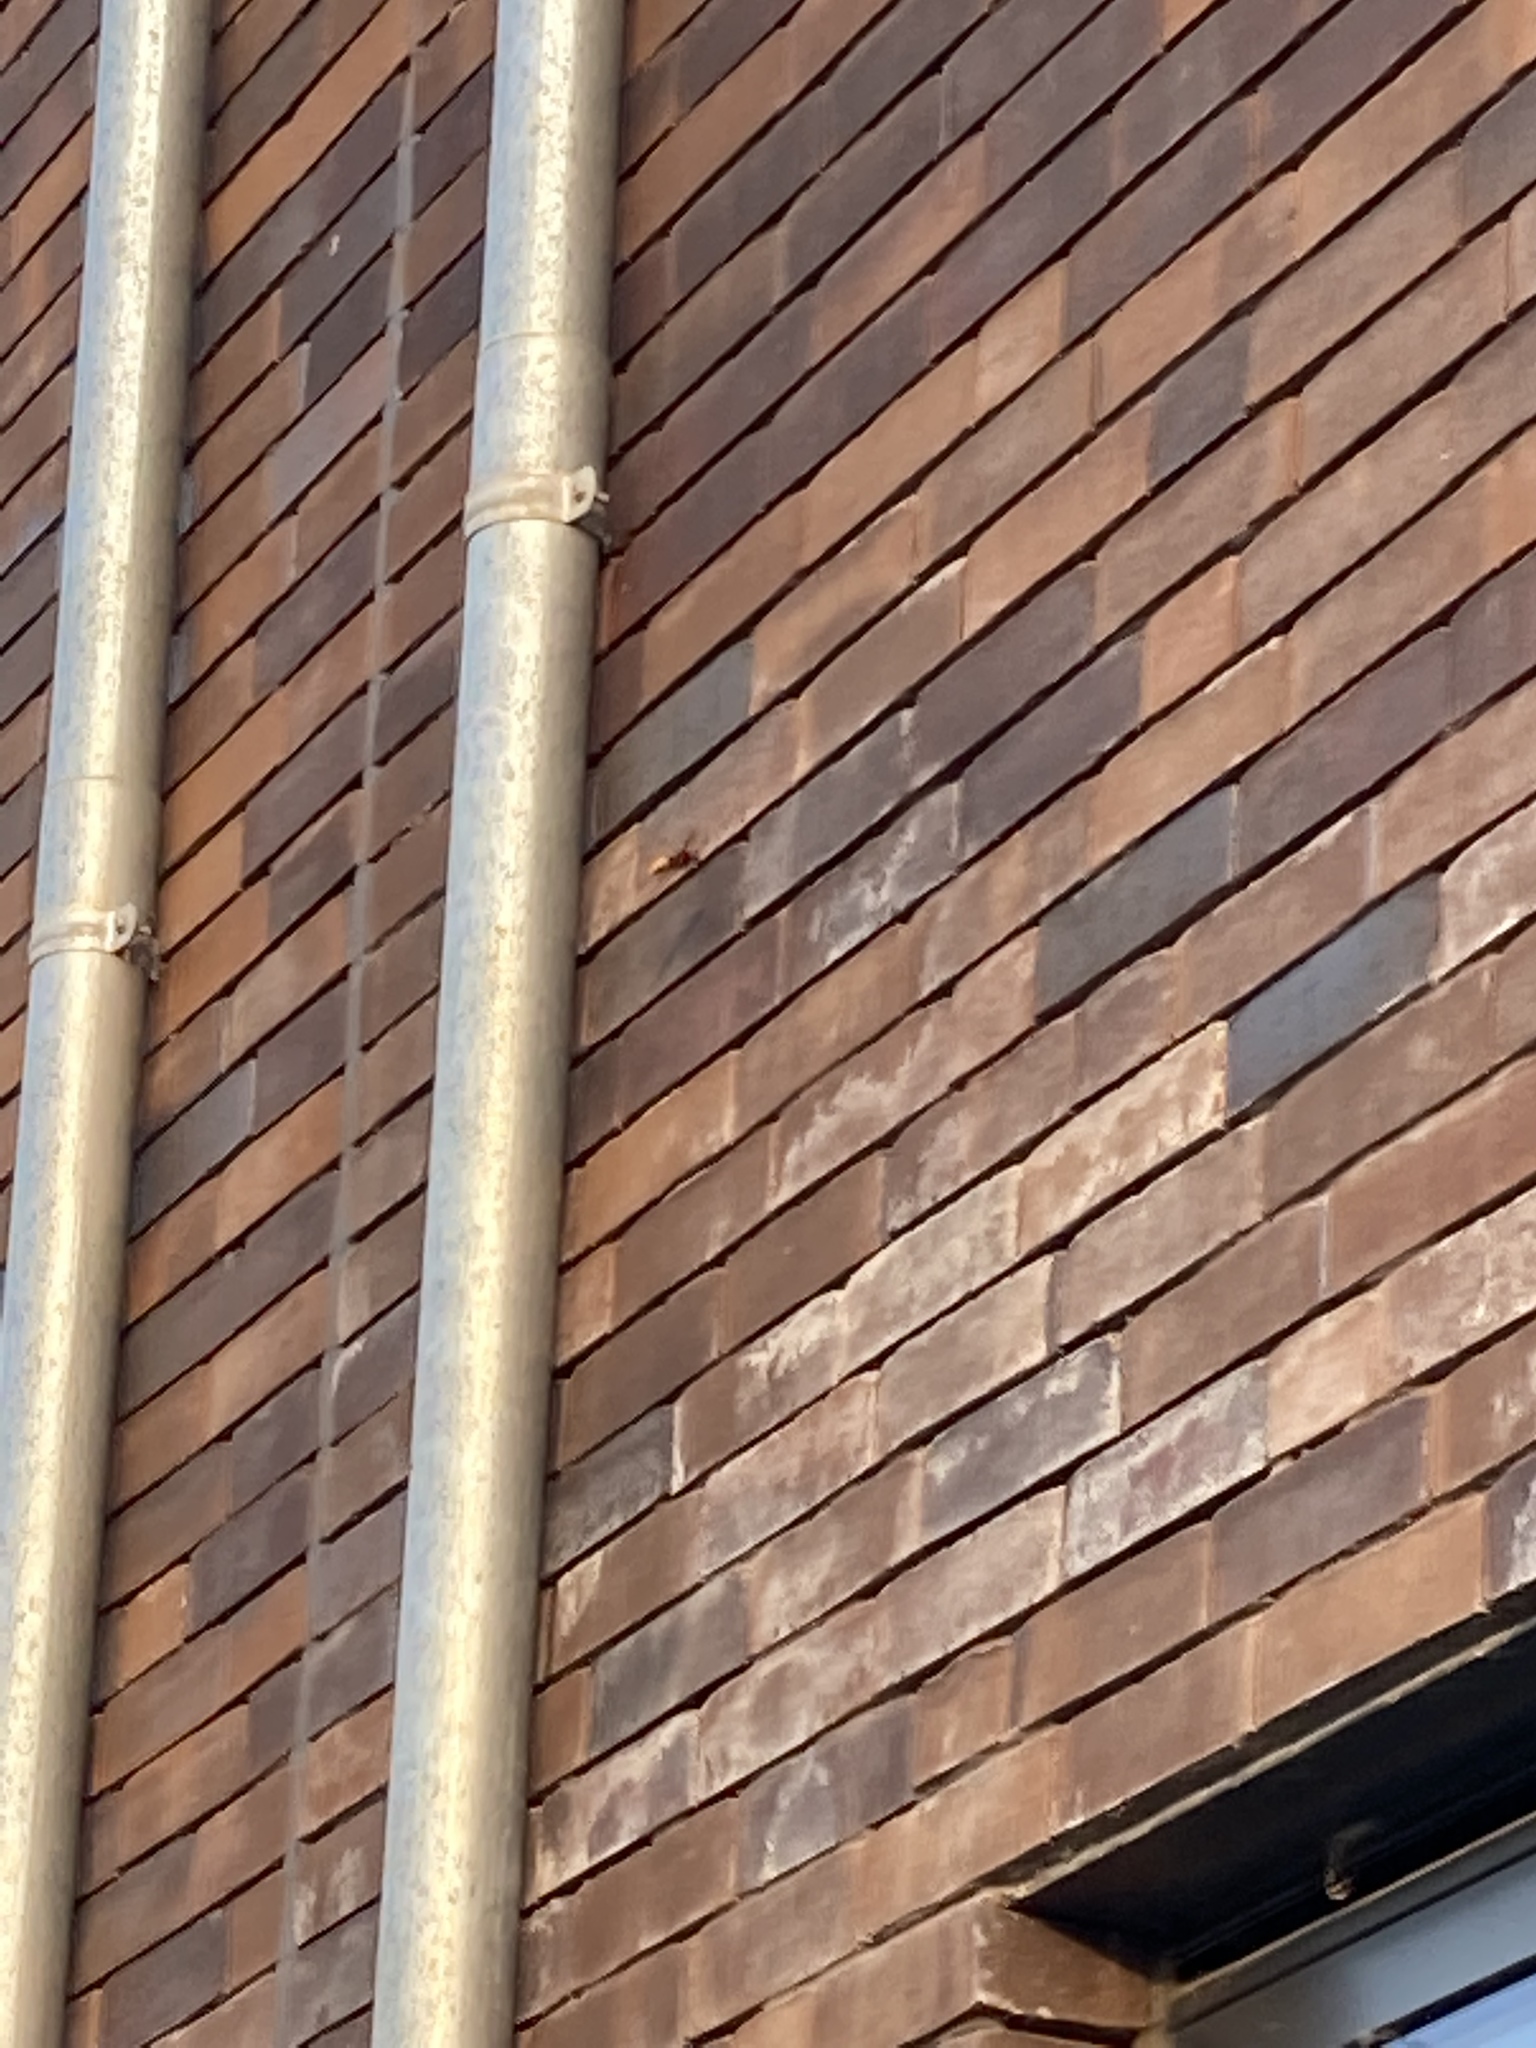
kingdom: Animalia
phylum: Arthropoda
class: Insecta
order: Hymenoptera
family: Vespidae
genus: Vespa
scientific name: Vespa crabro
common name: Hornet
